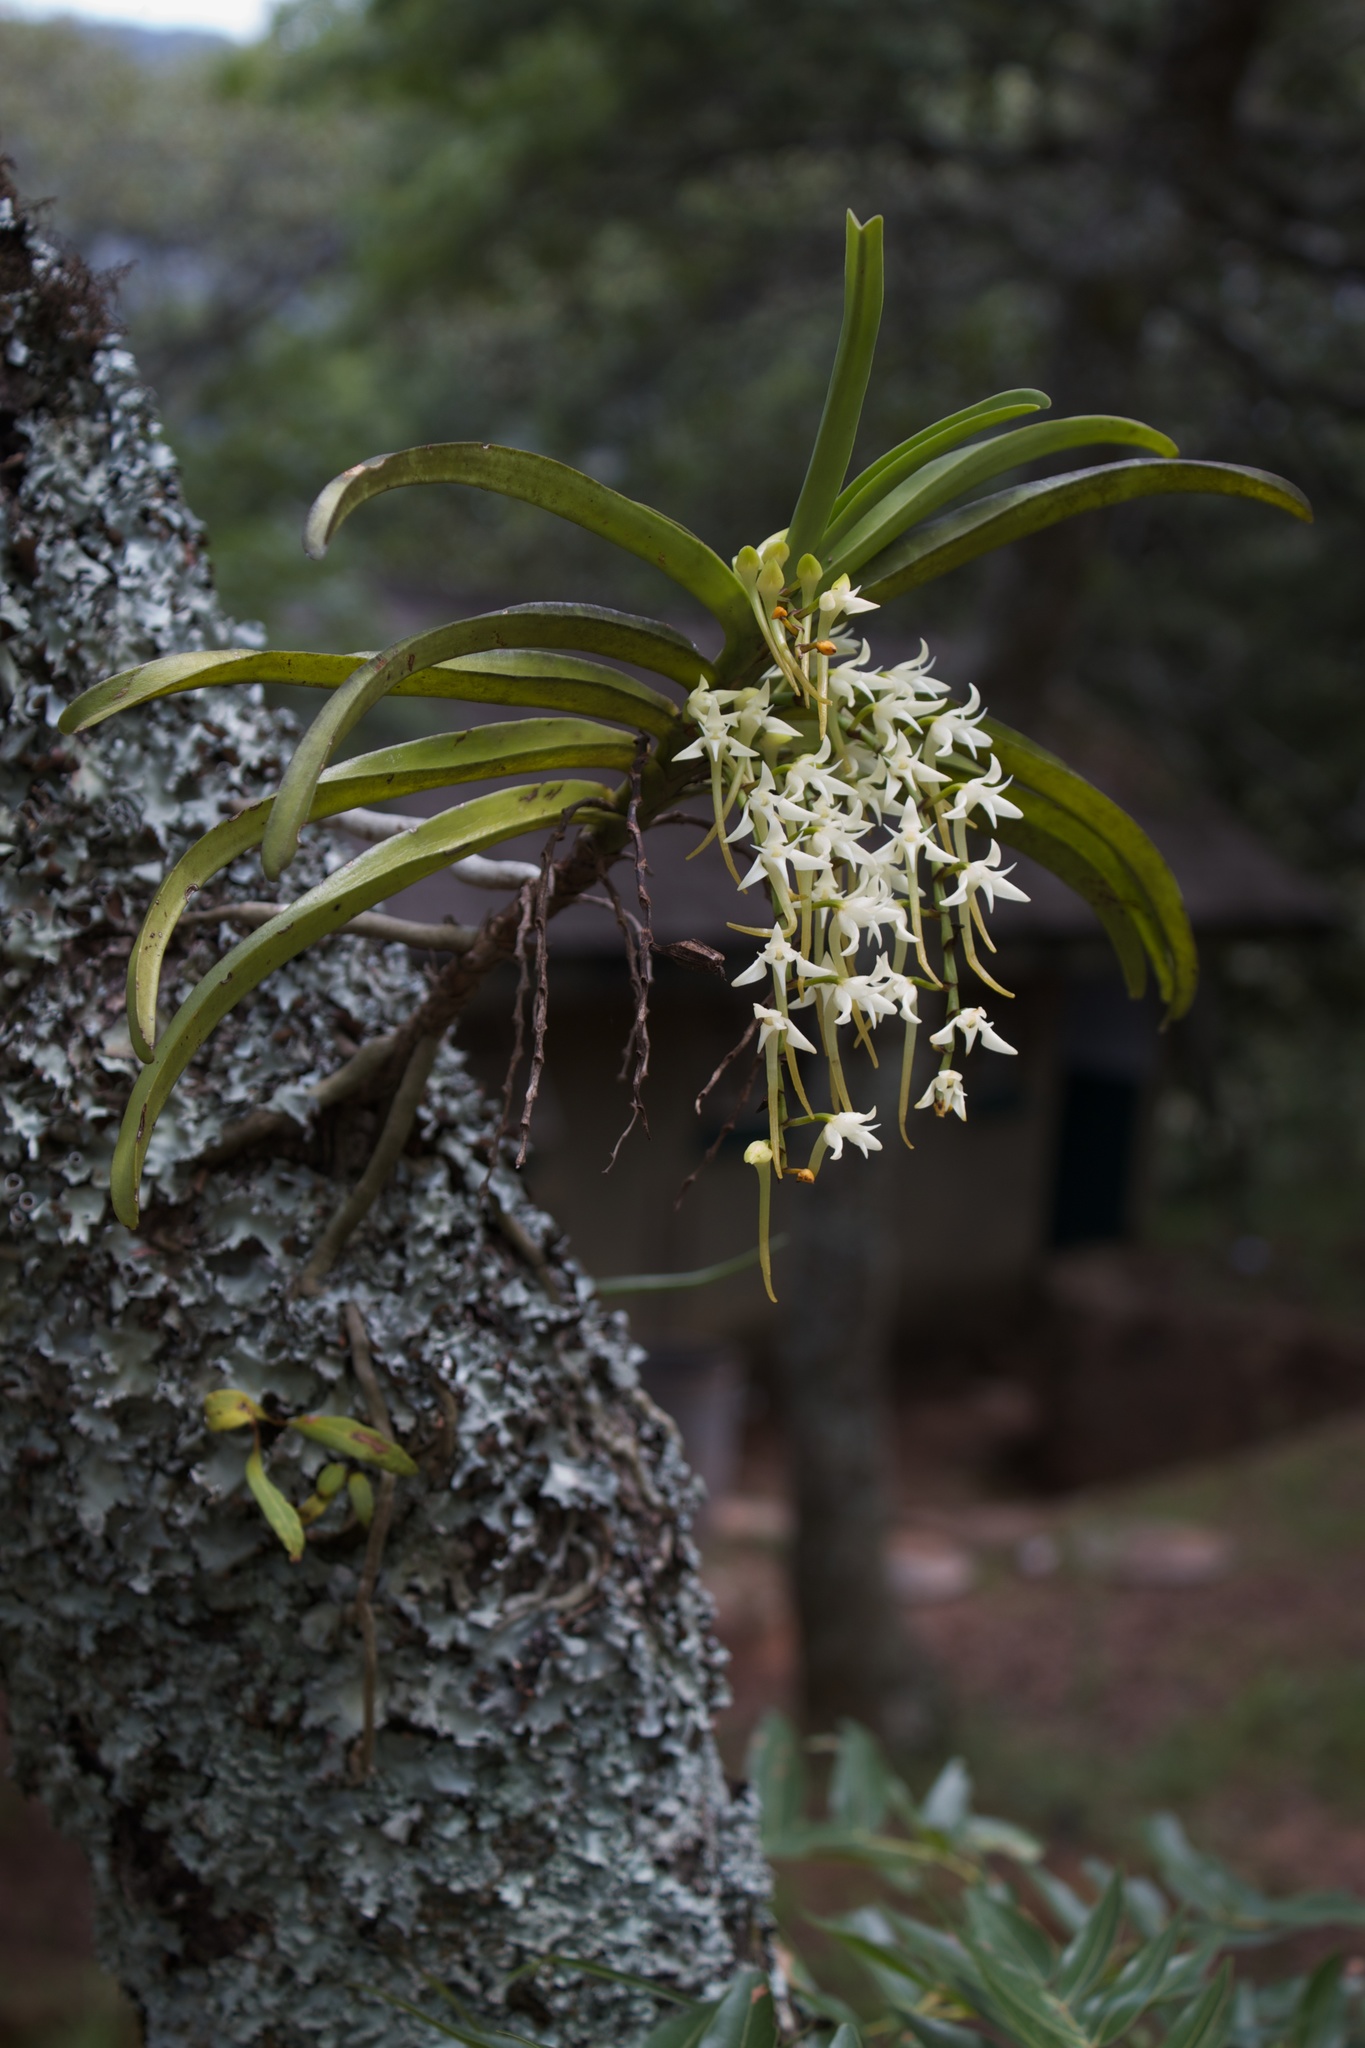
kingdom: Plantae
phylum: Tracheophyta
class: Liliopsida
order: Asparagales
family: Orchidaceae
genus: Cyrtorchis
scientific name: Cyrtorchis praetermissa
